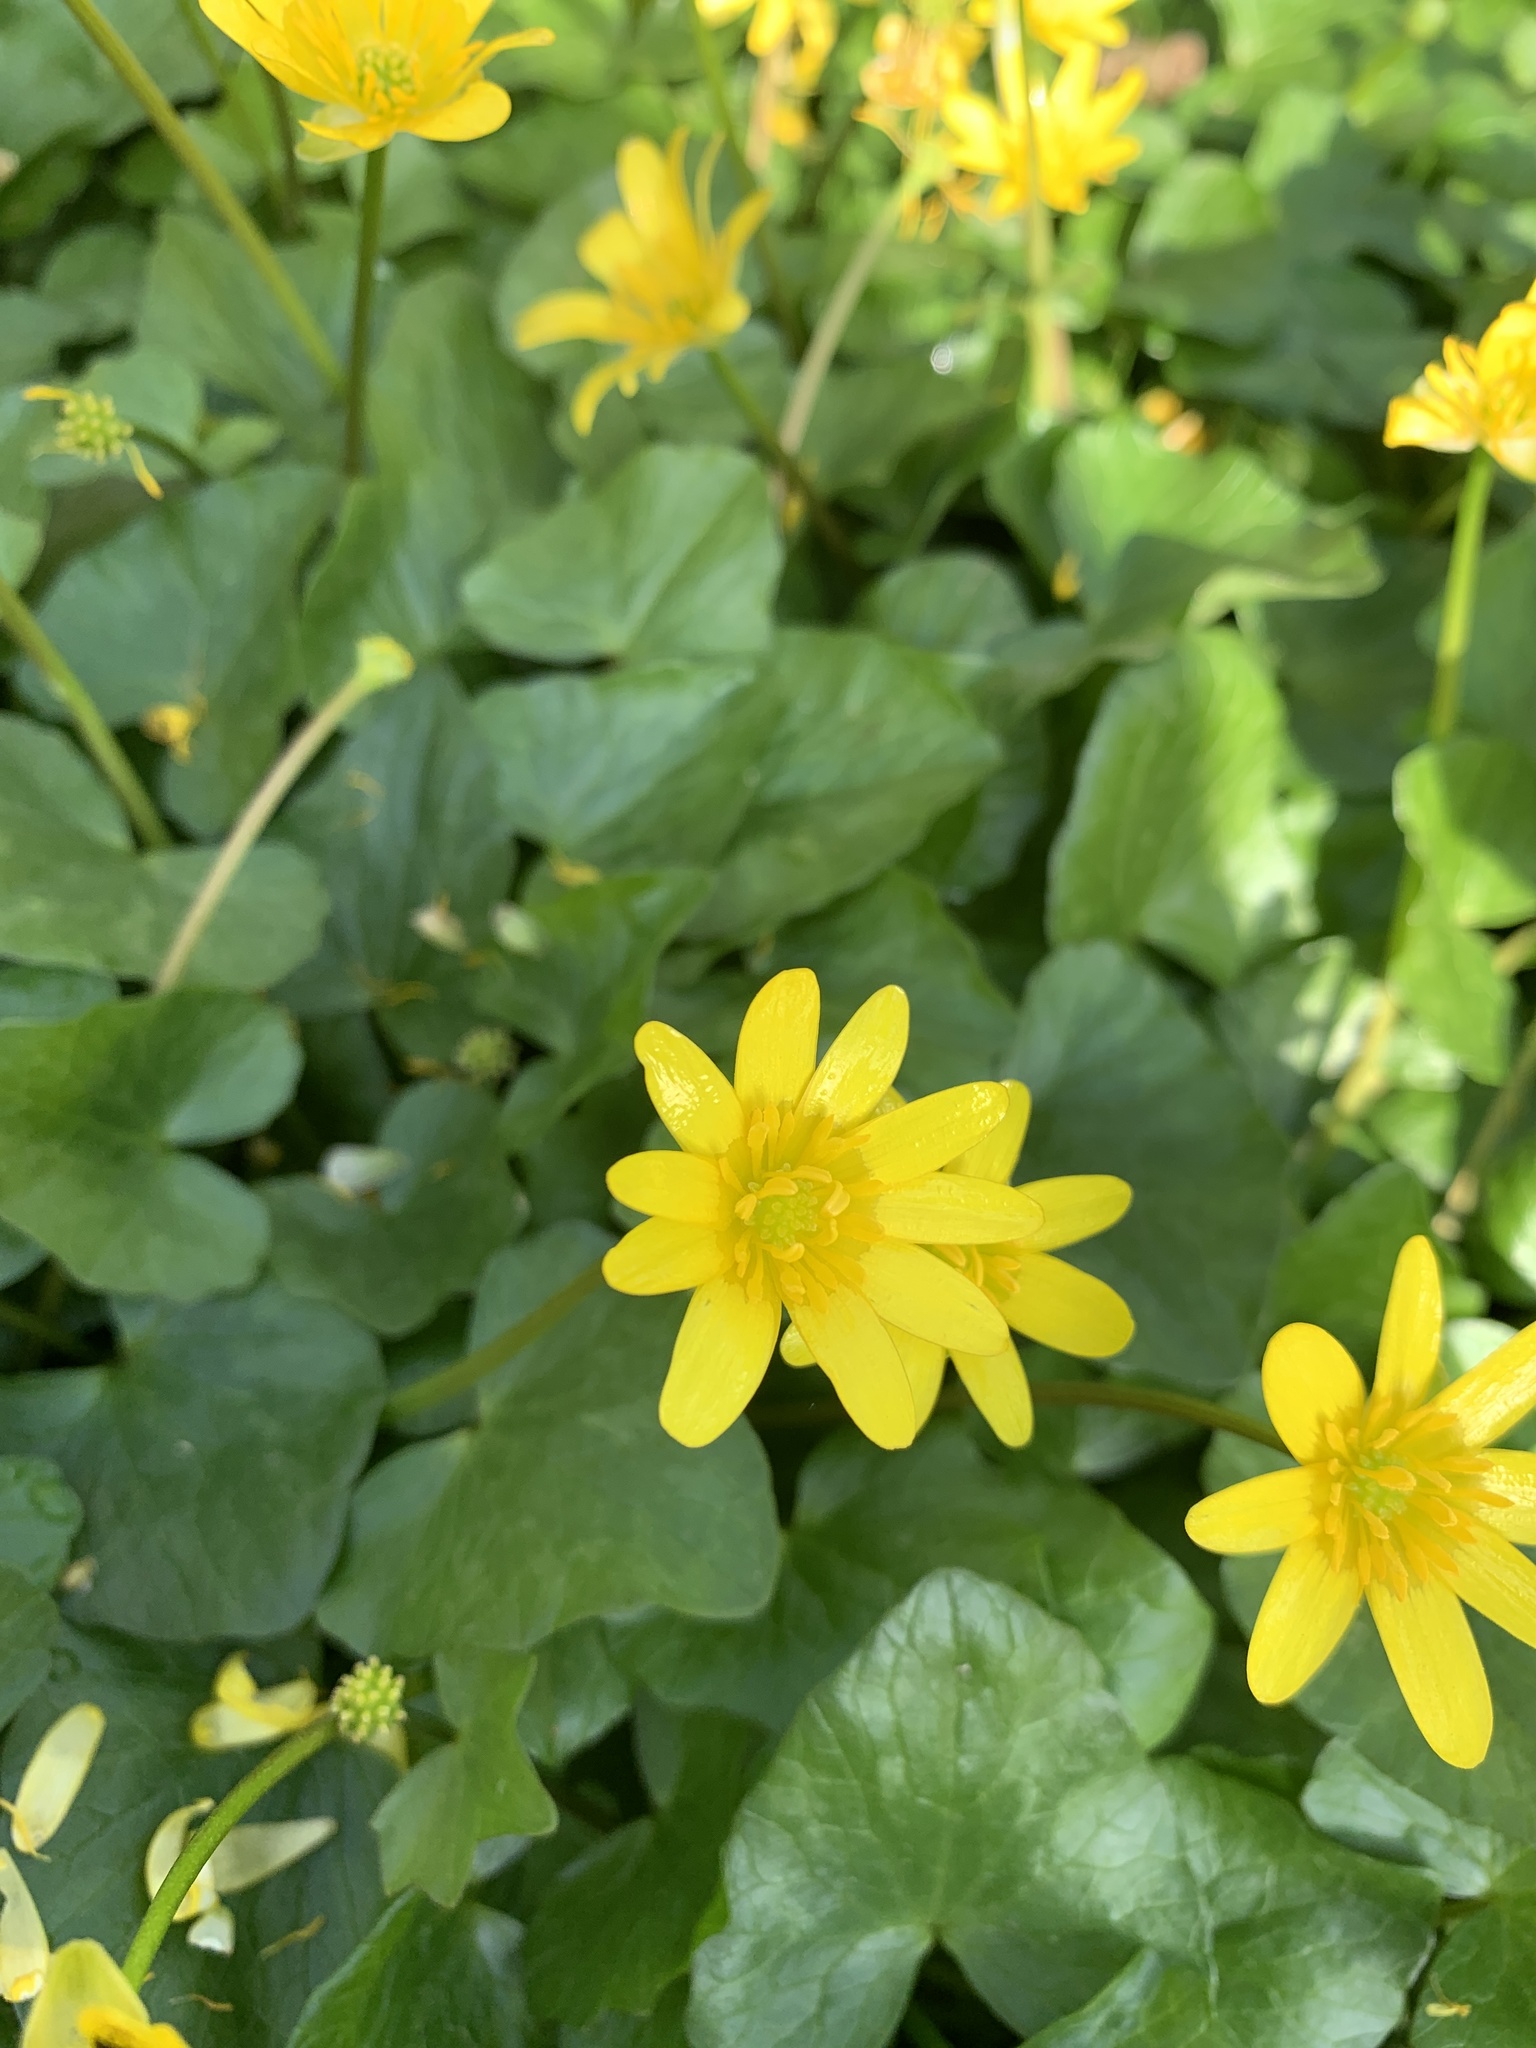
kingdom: Plantae
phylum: Tracheophyta
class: Magnoliopsida
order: Ranunculales
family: Ranunculaceae
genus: Ficaria
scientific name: Ficaria verna
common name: Lesser celandine
